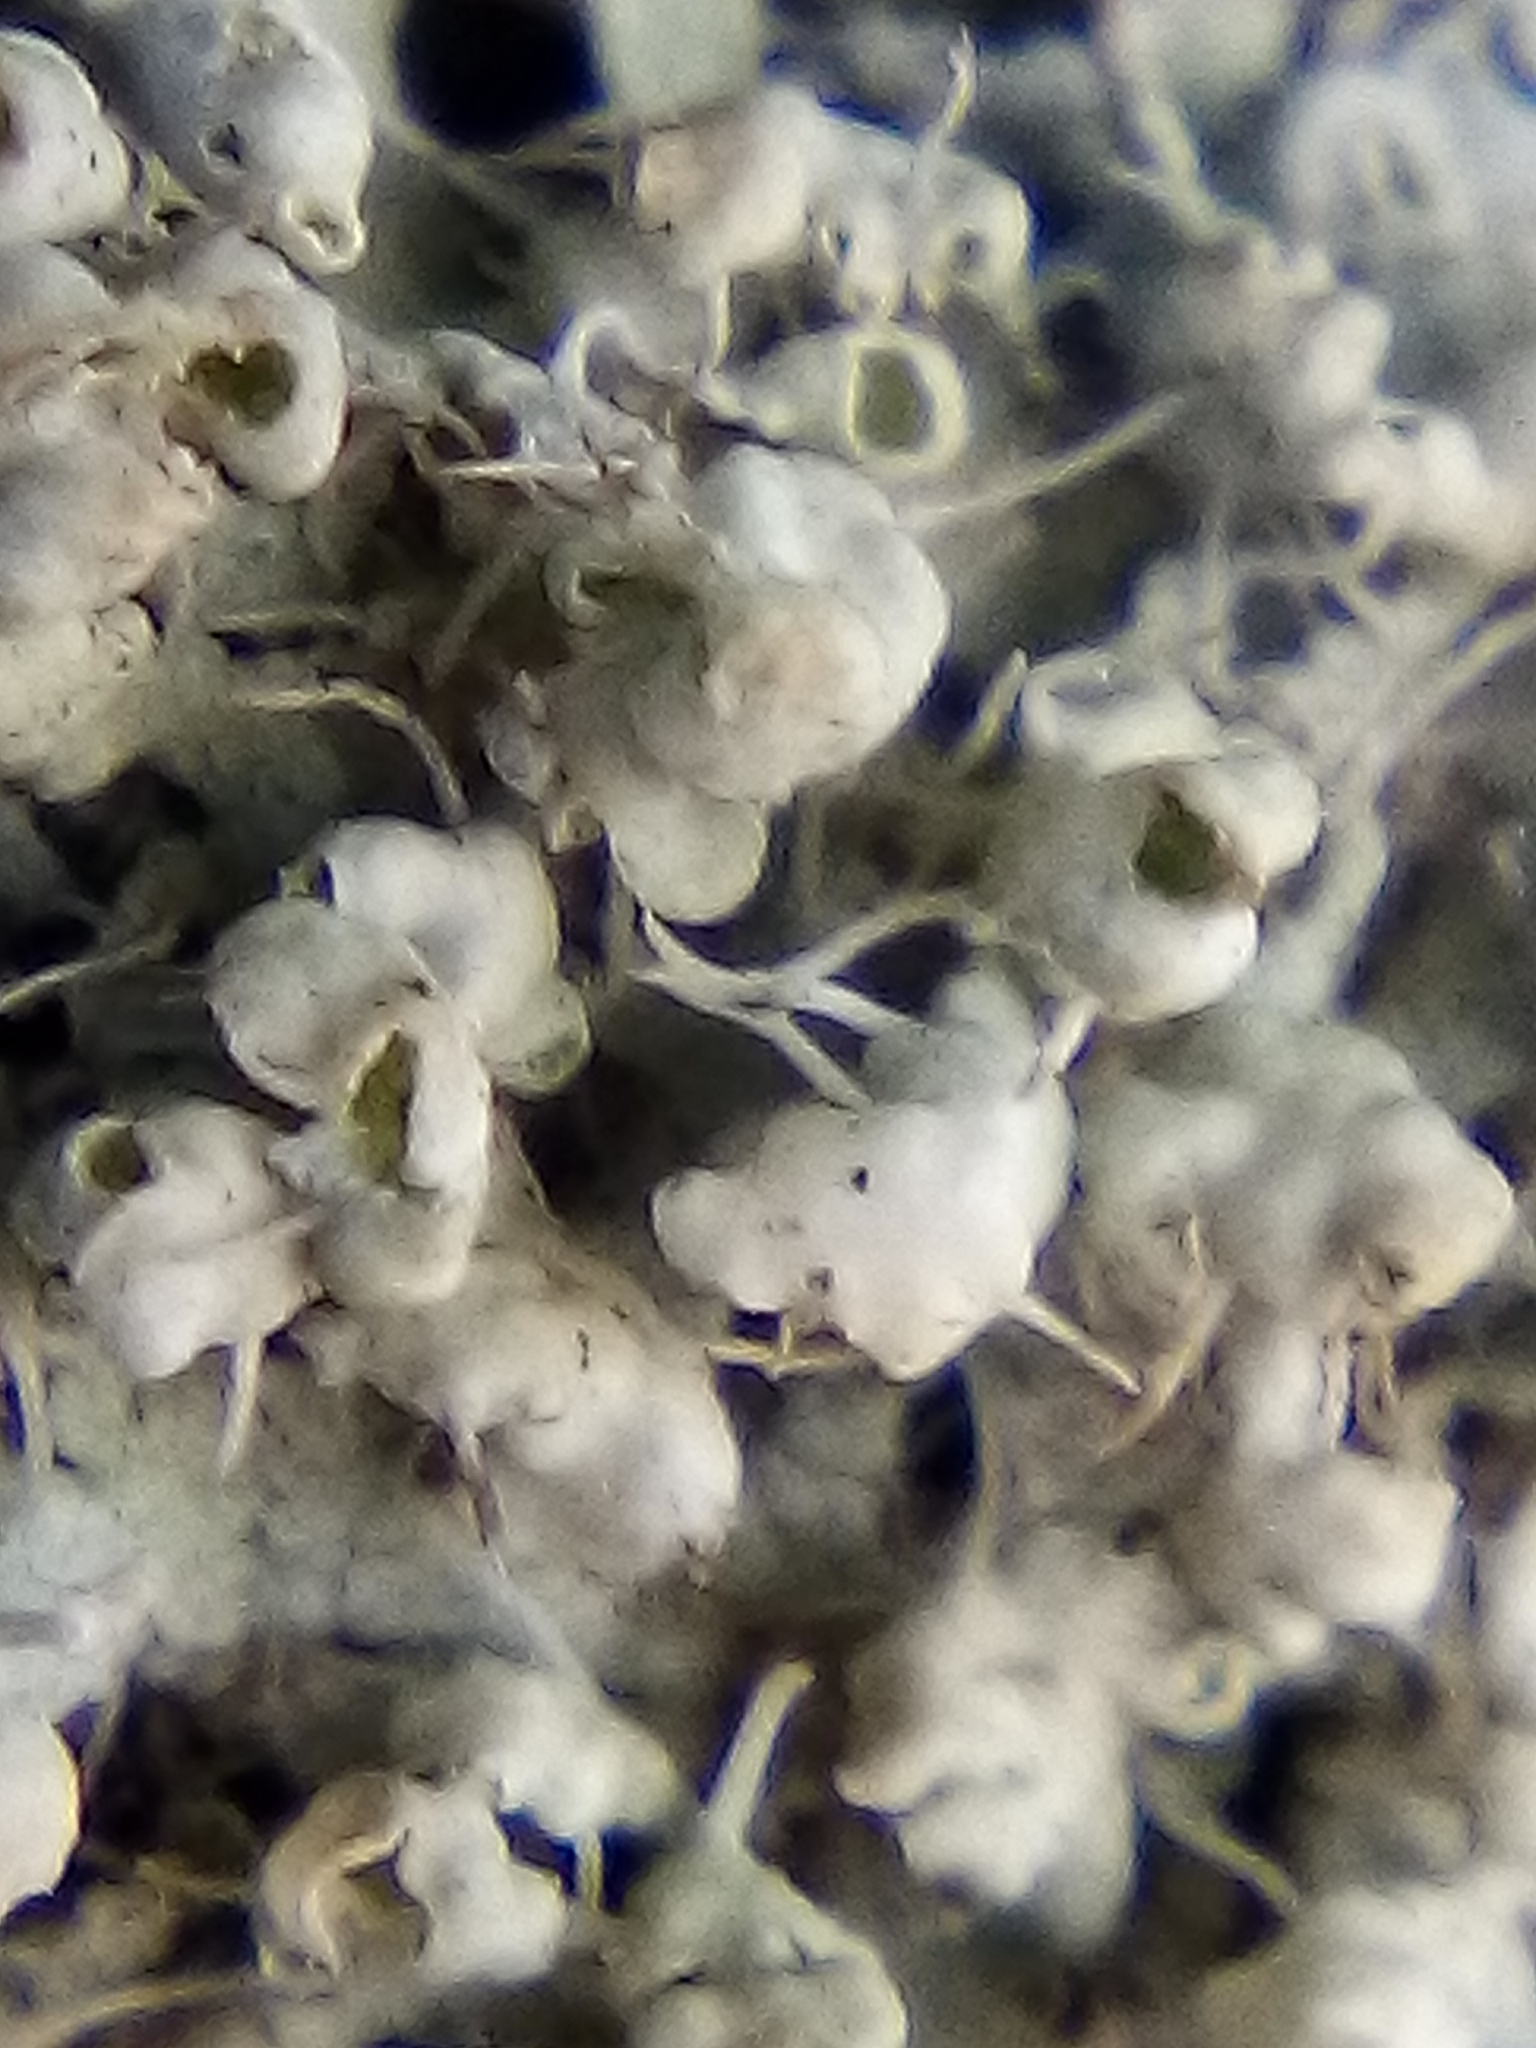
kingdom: Fungi
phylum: Ascomycota
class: Lecanoromycetes
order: Caliciales
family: Physciaceae
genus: Physcia
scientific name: Physcia adscendens
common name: Hooded rosette lichen
